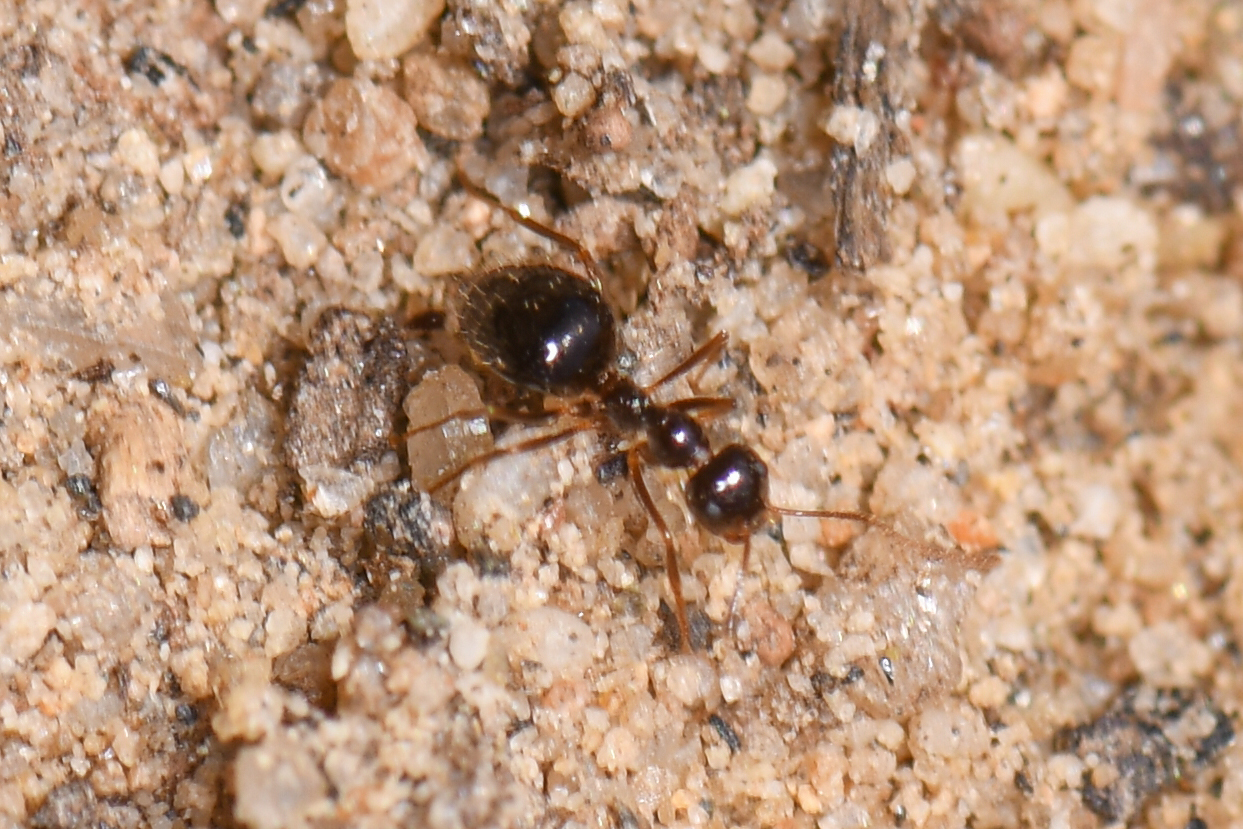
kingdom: Animalia
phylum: Arthropoda
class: Insecta
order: Hymenoptera
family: Formicidae
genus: Prenolepis
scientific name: Prenolepis imparis
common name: Small honey ant
